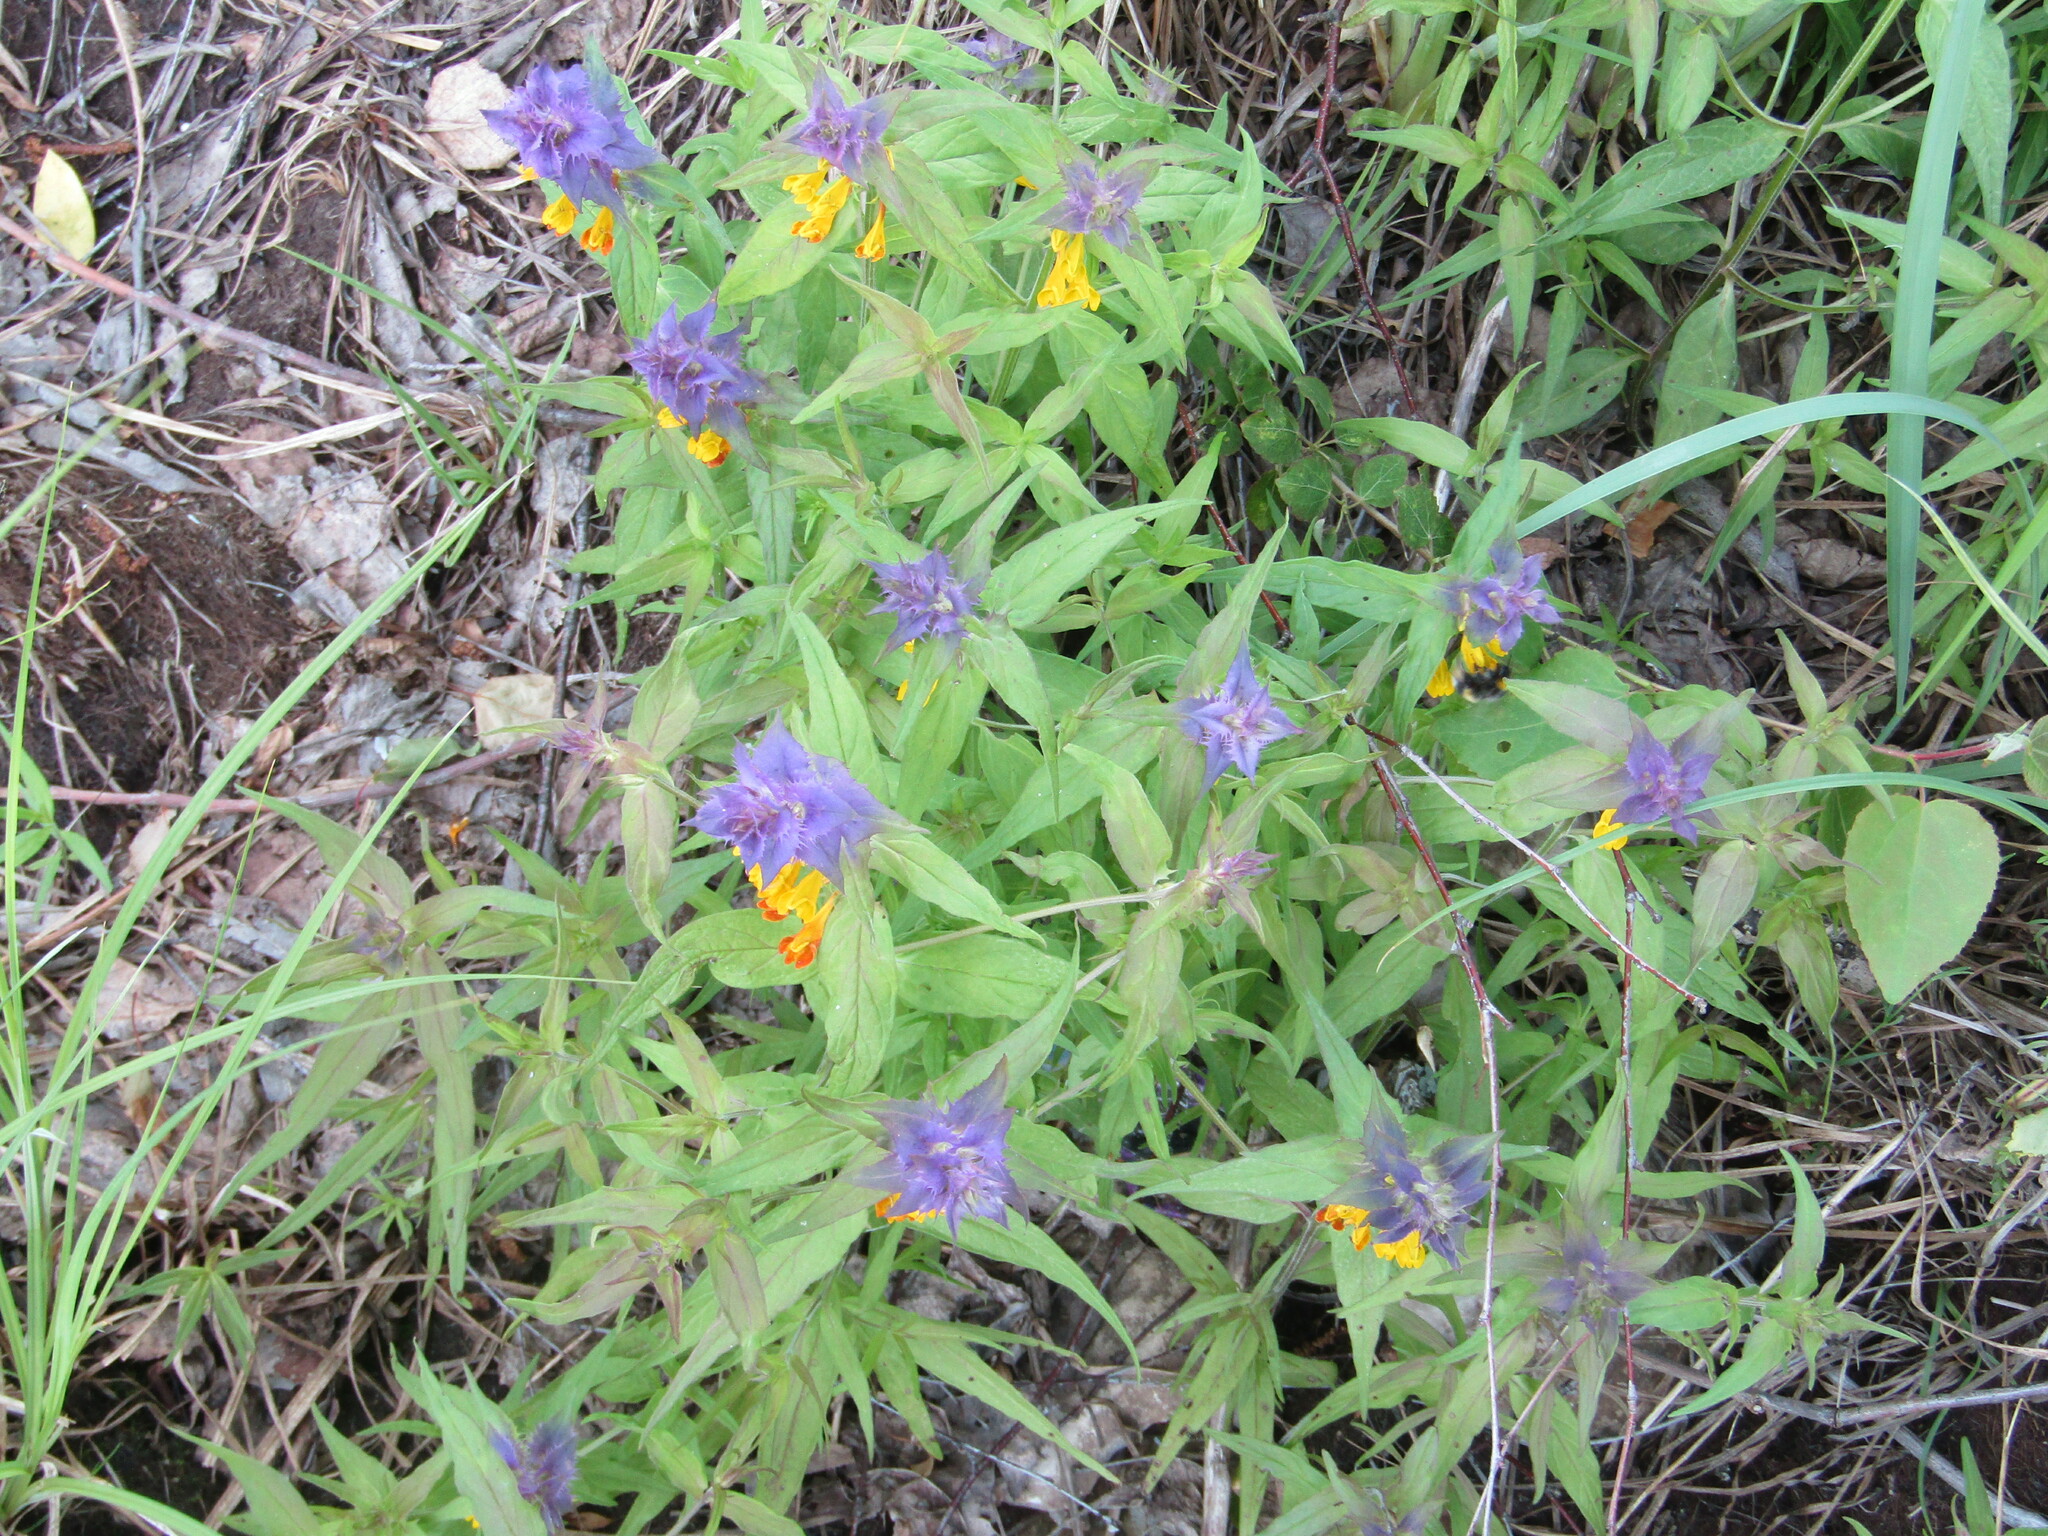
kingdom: Plantae
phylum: Tracheophyta
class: Magnoliopsida
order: Lamiales
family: Orobanchaceae
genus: Melampyrum
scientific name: Melampyrum nemorosum
